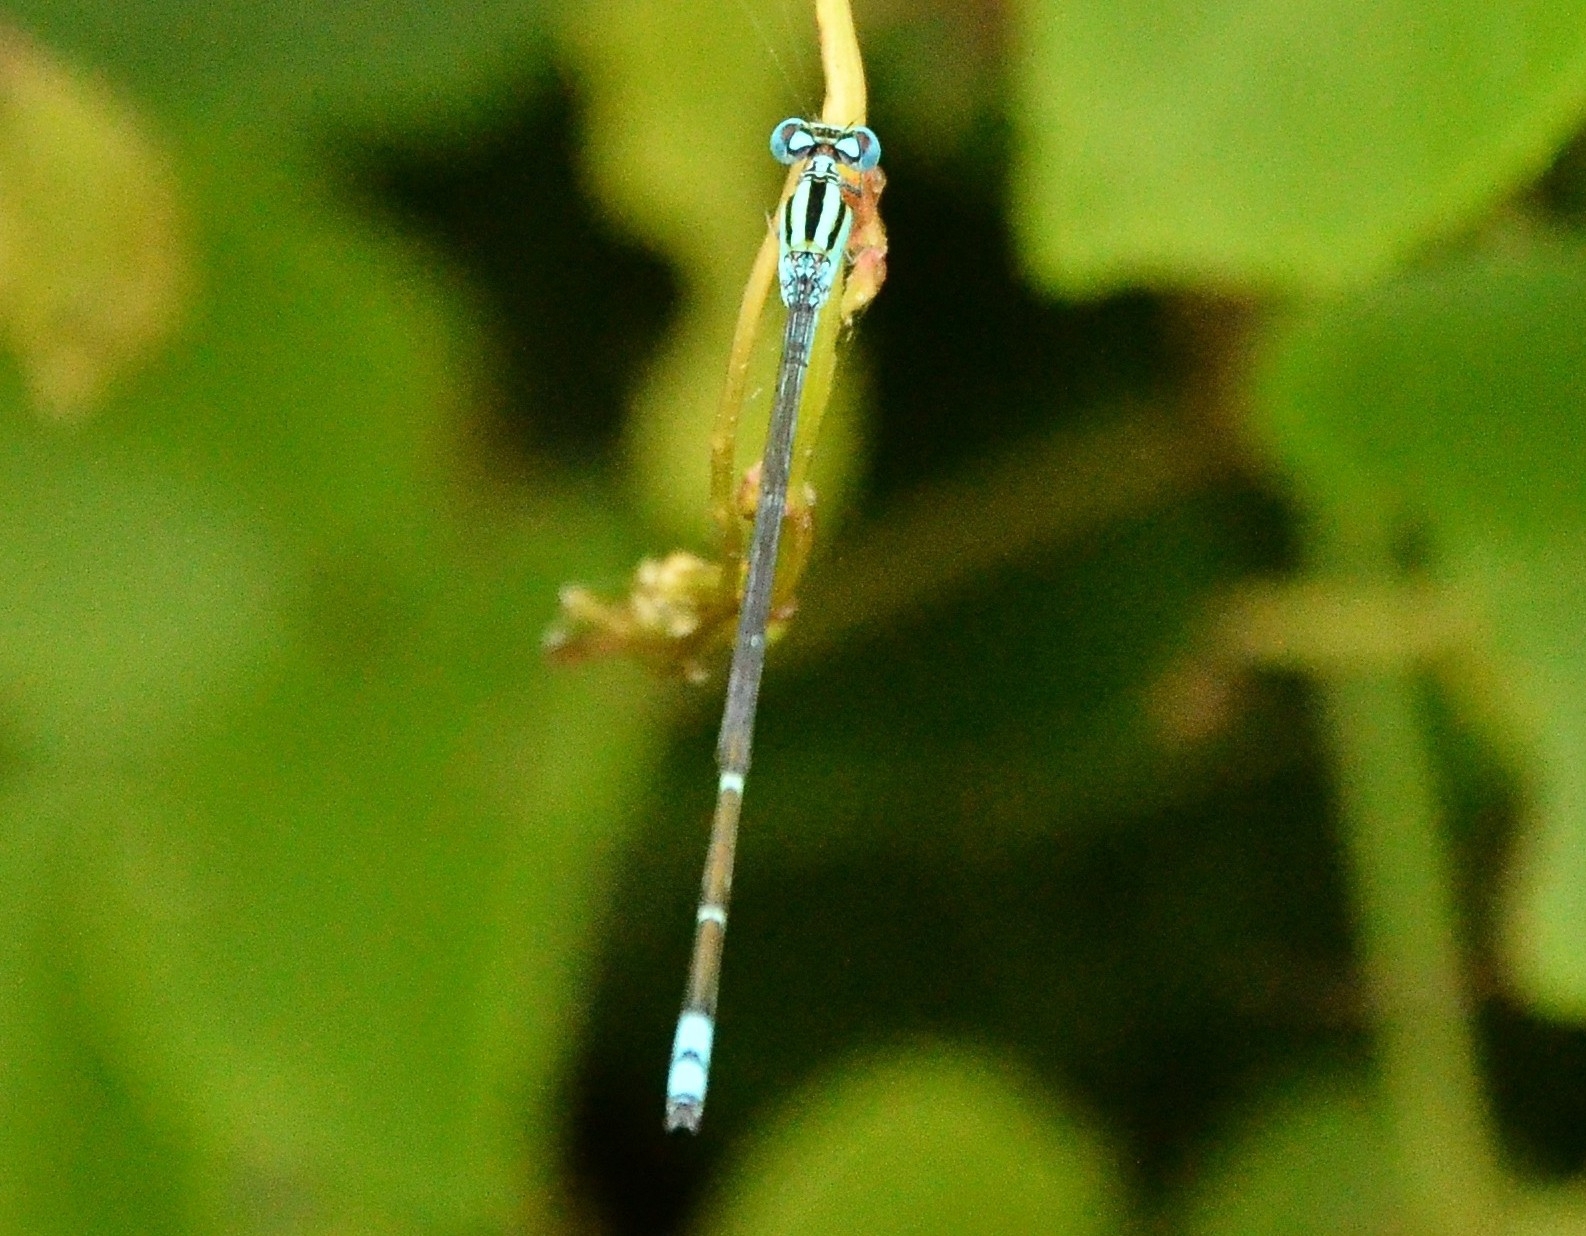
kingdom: Animalia
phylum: Arthropoda
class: Insecta
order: Odonata
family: Coenagrionidae
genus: Pseudagrion
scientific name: Pseudagrion microcephalum
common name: Blue riverdamsel
